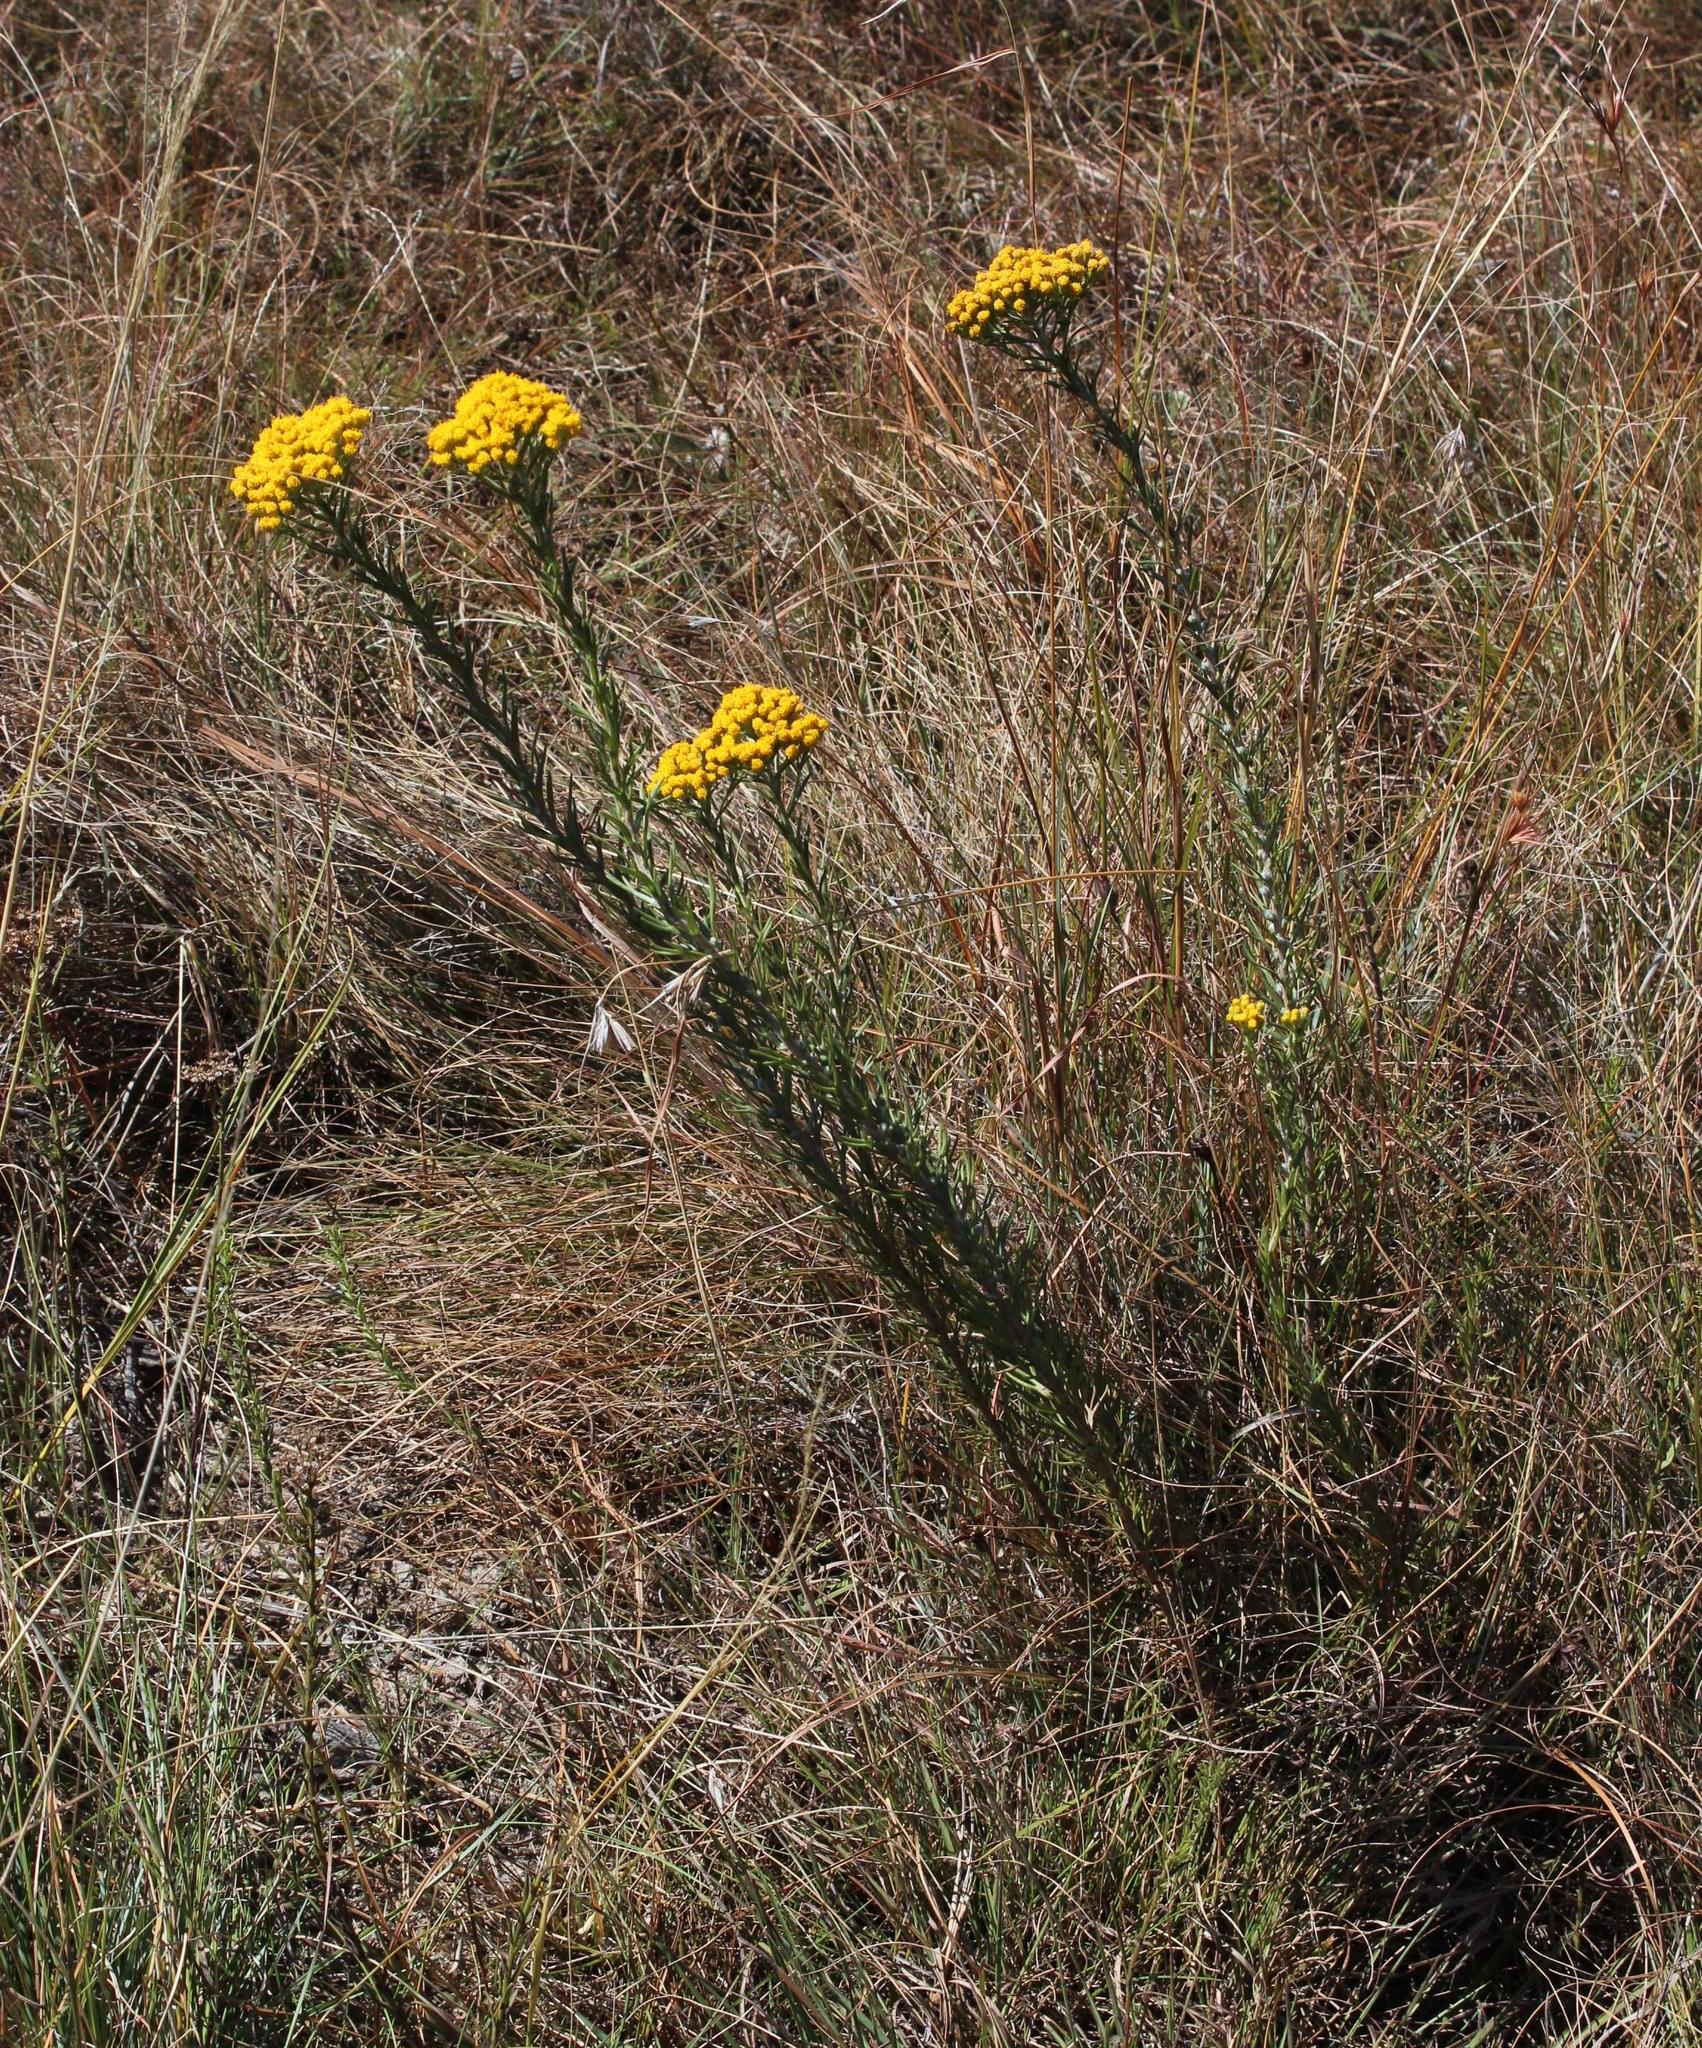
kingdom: Plantae
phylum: Tracheophyta
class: Magnoliopsida
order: Asterales
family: Asteraceae
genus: Phymaspermum
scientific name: Phymaspermum acerosum
